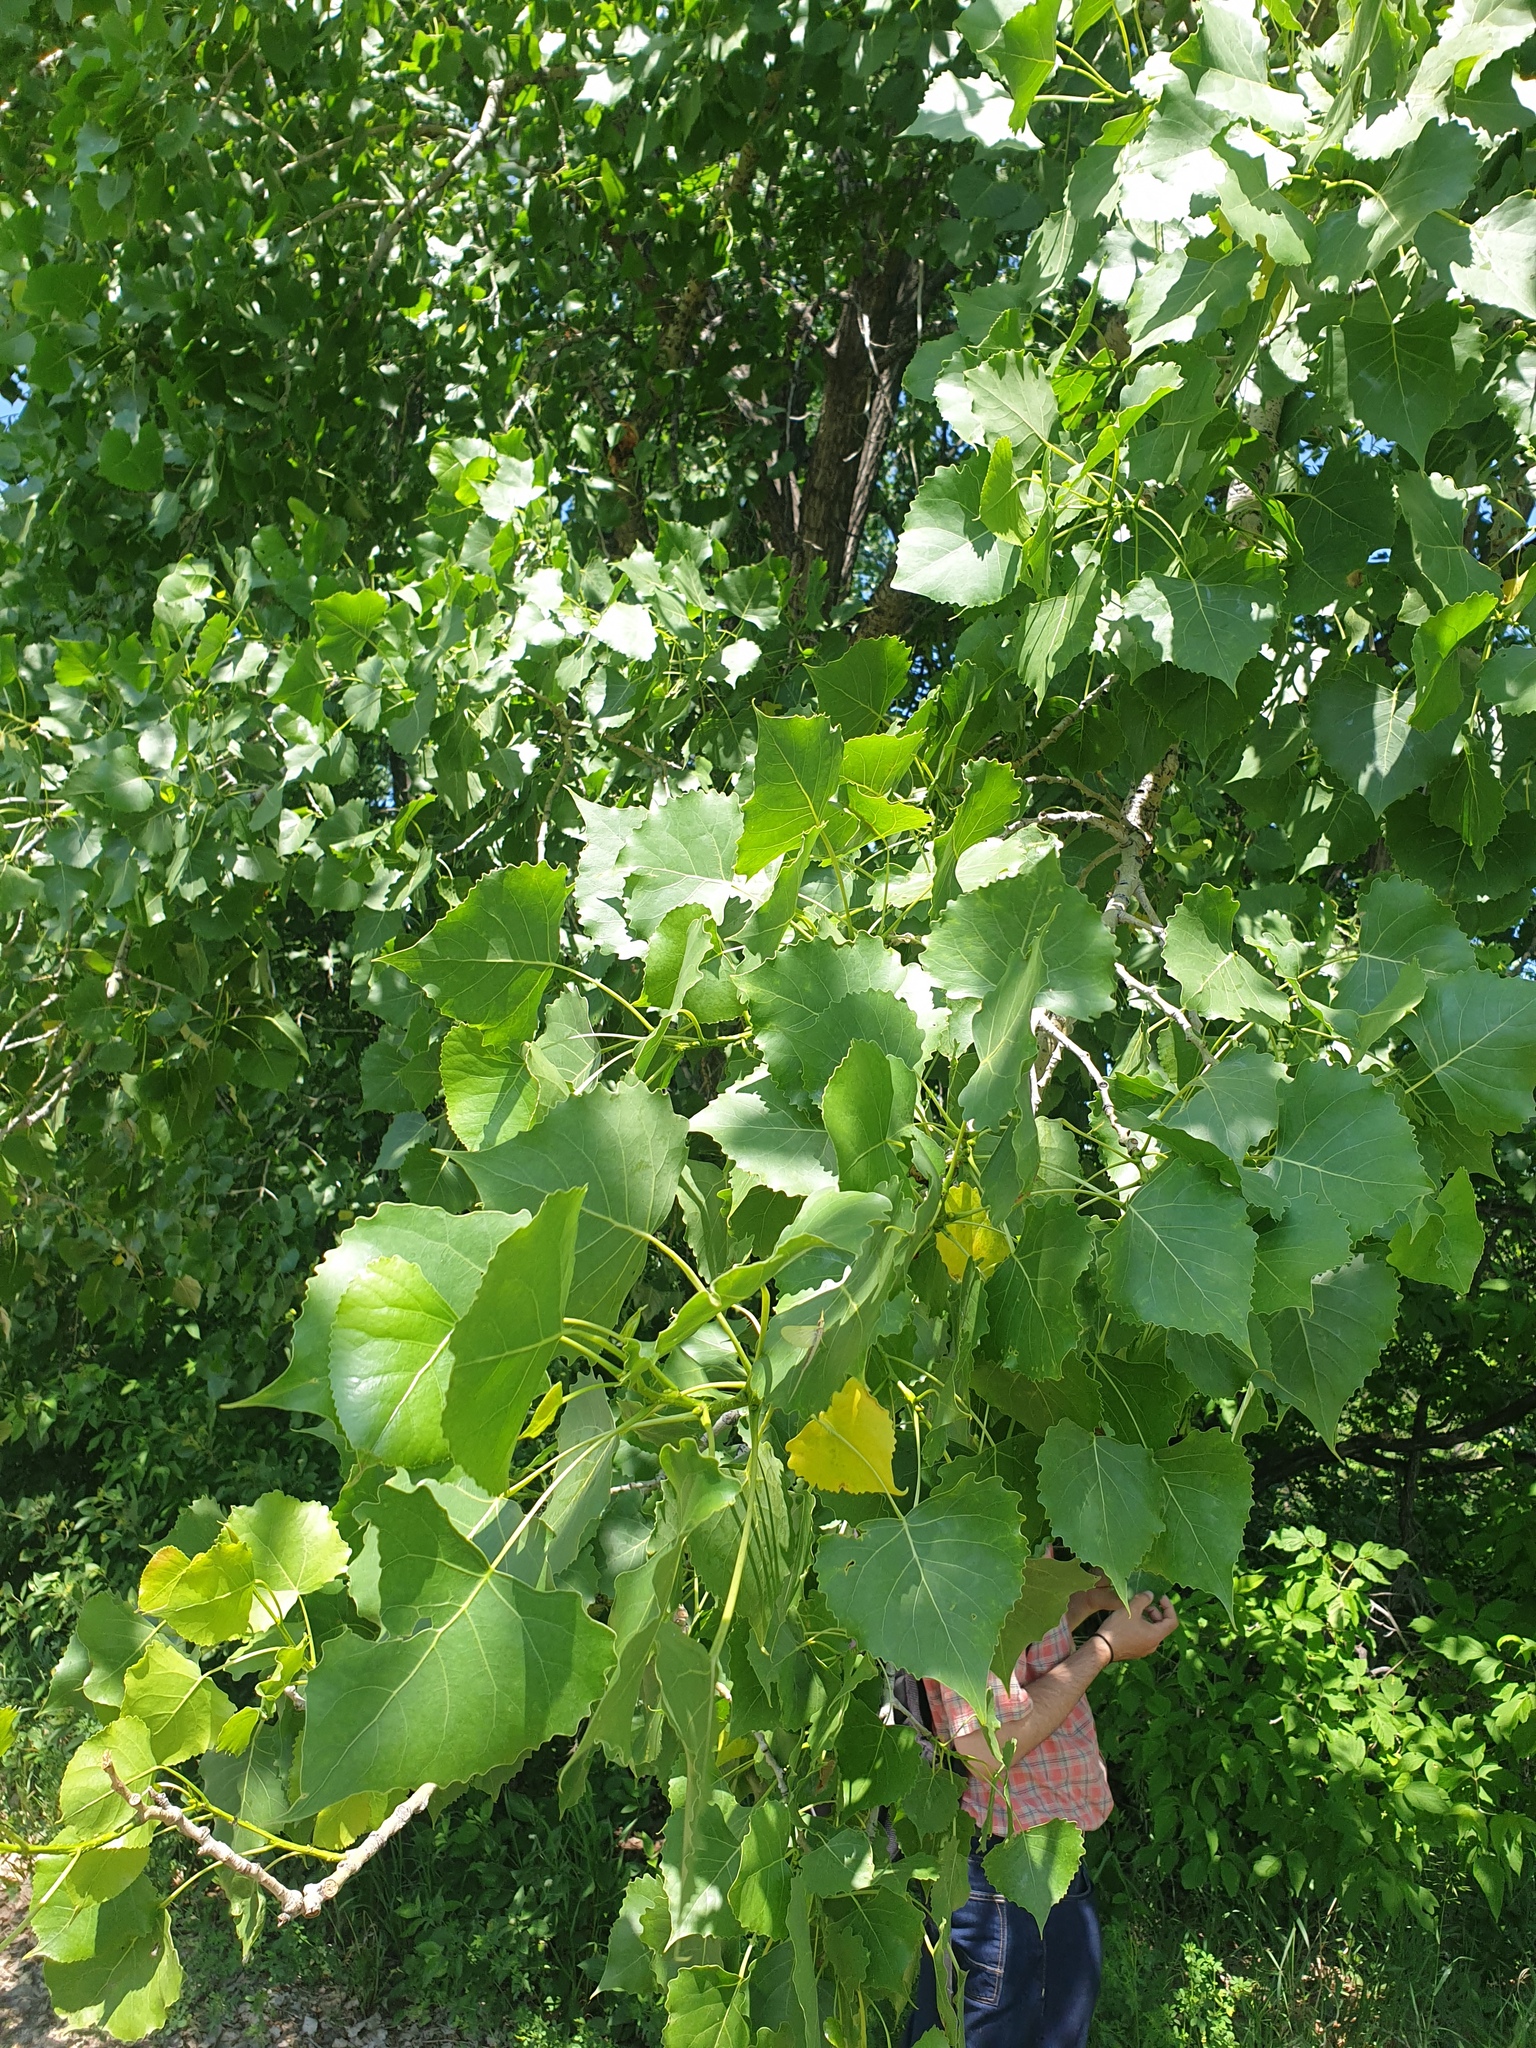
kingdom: Plantae
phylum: Tracheophyta
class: Magnoliopsida
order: Malpighiales
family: Salicaceae
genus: Populus
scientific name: Populus deltoides
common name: Eastern cottonwood
